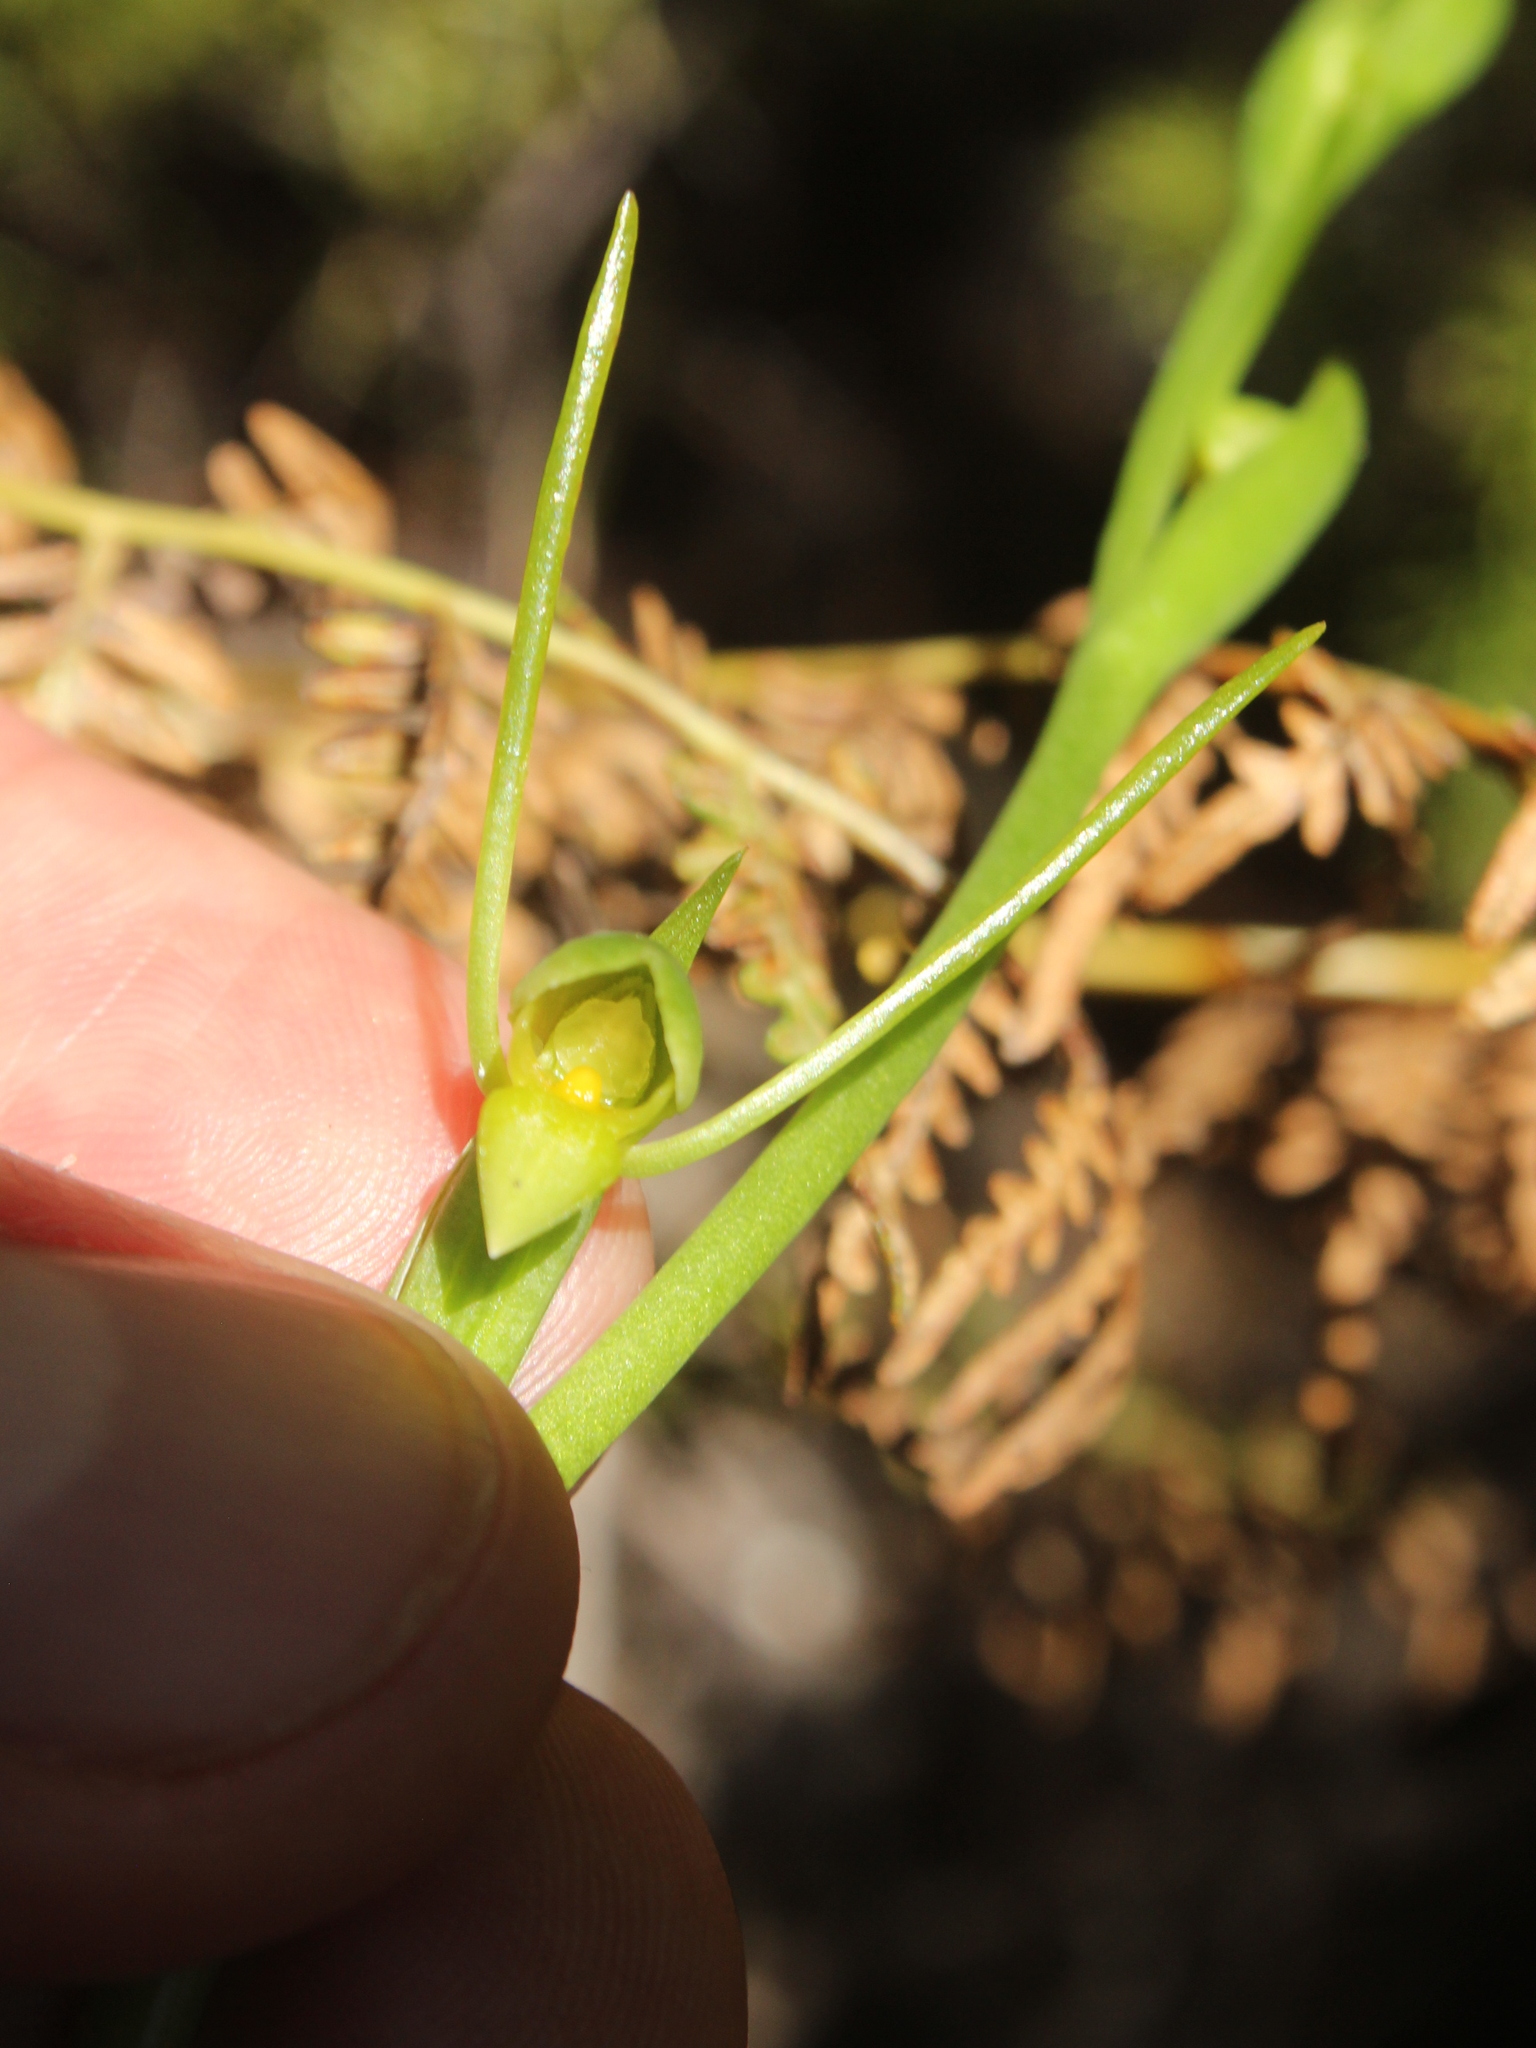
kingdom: Plantae
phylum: Tracheophyta
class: Liliopsida
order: Asparagales
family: Orchidaceae
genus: Orthoceras
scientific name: Orthoceras novae-zeelandiae
